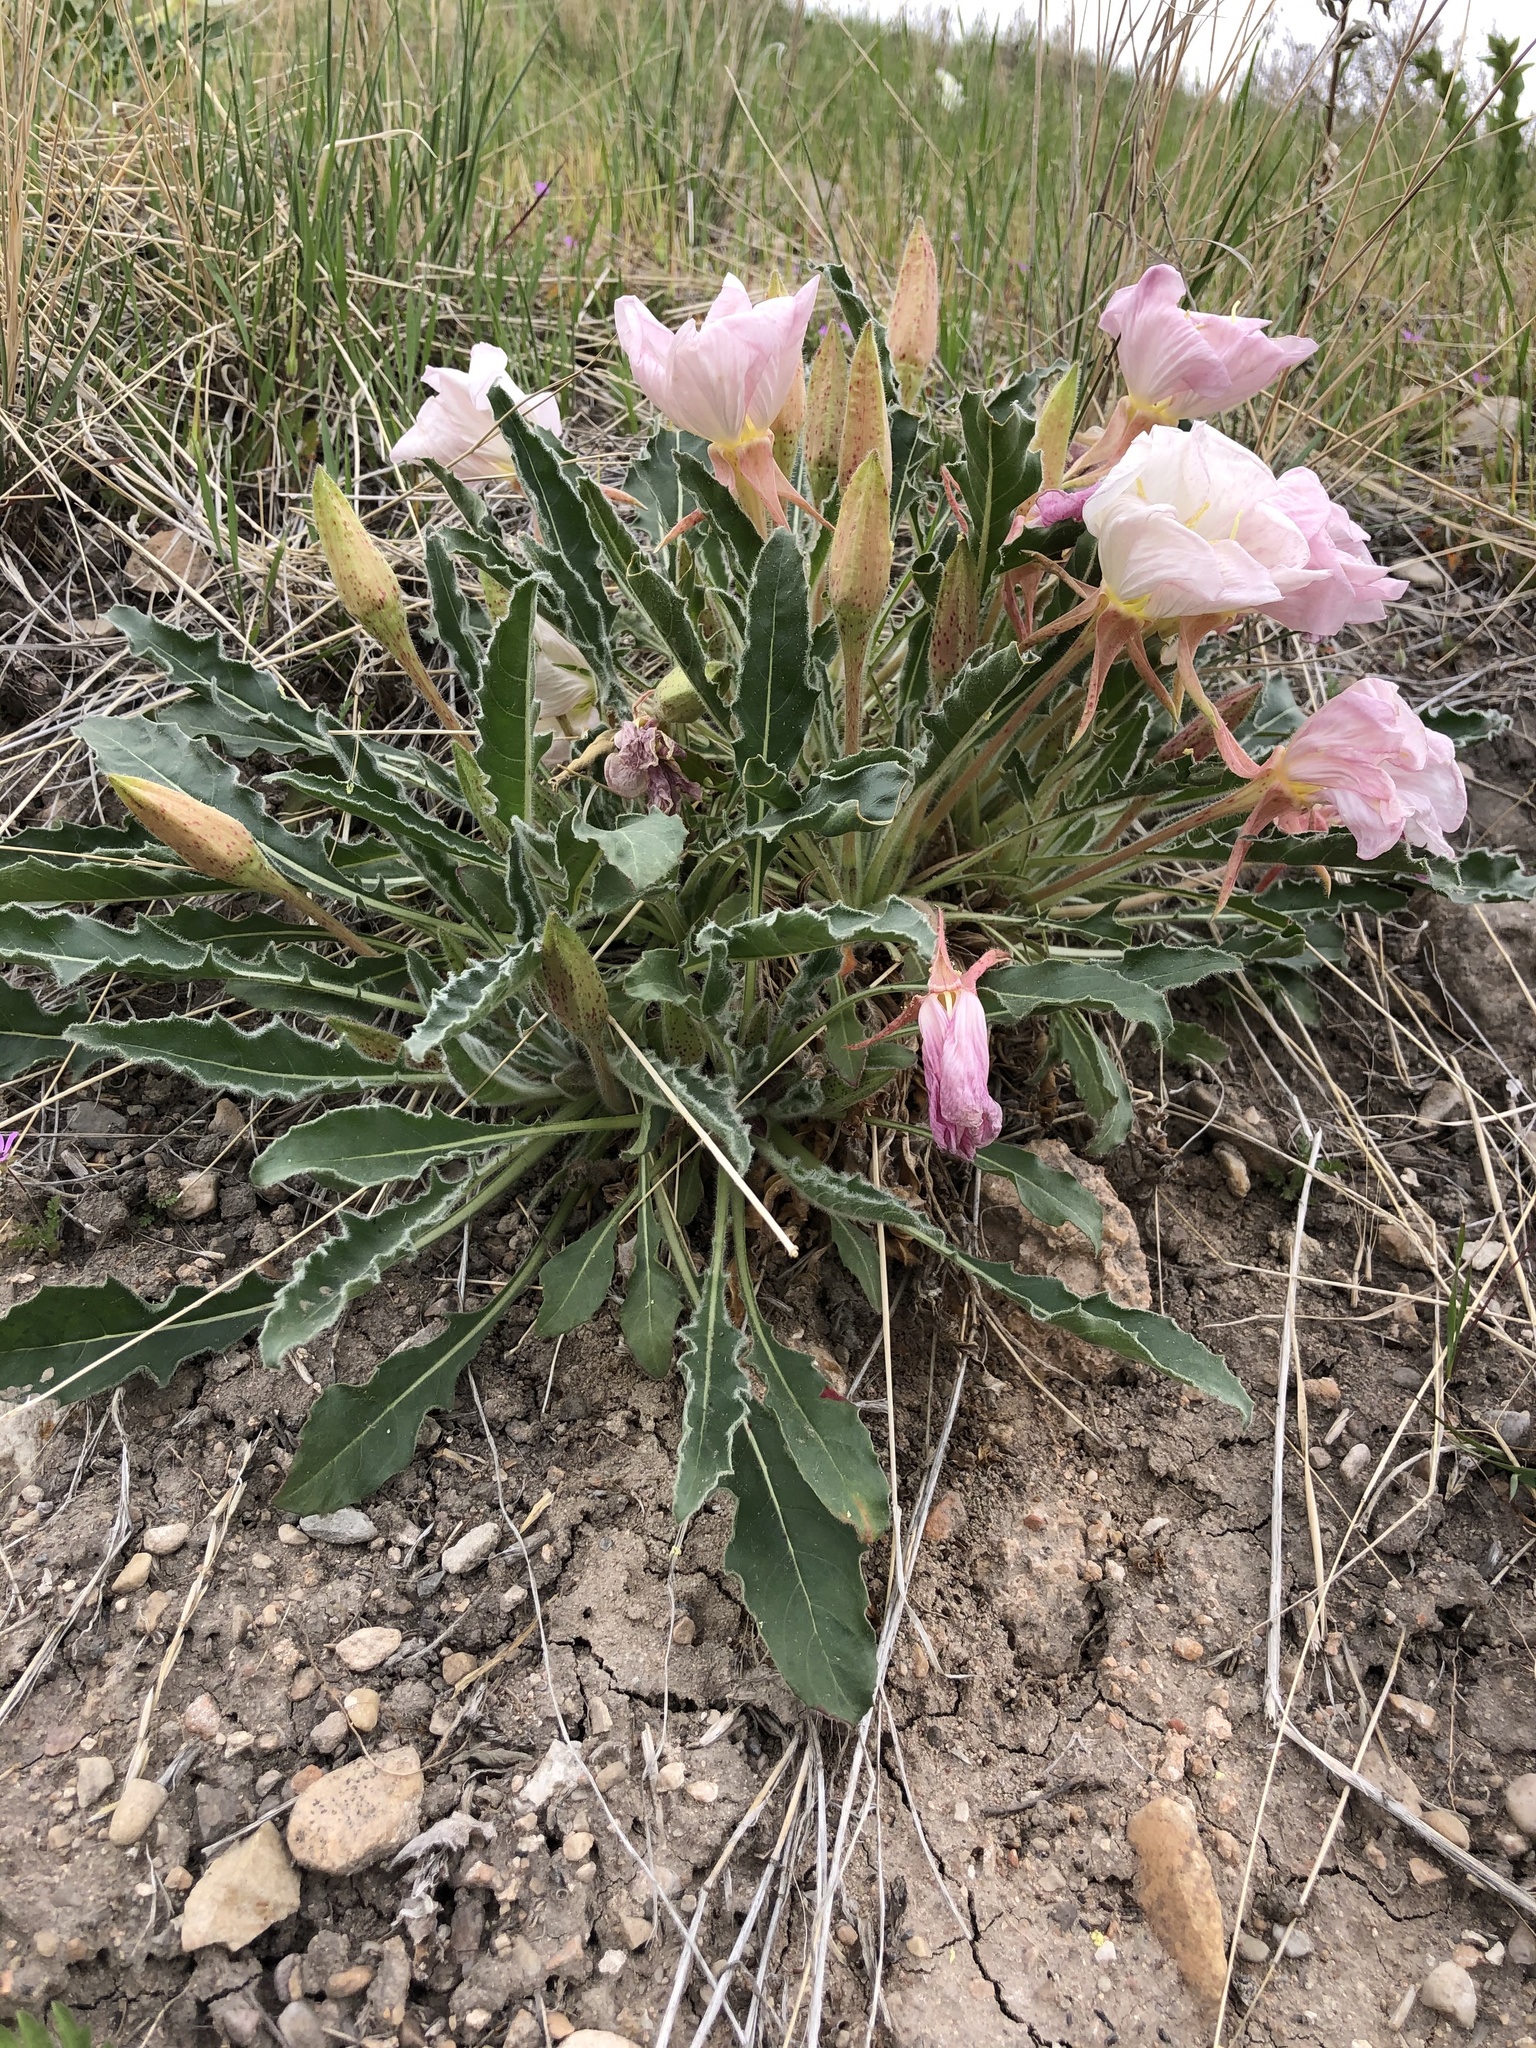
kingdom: Plantae
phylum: Tracheophyta
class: Magnoliopsida
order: Myrtales
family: Onagraceae
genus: Oenothera
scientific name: Oenothera cespitosa
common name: Tufted evening-primrose
